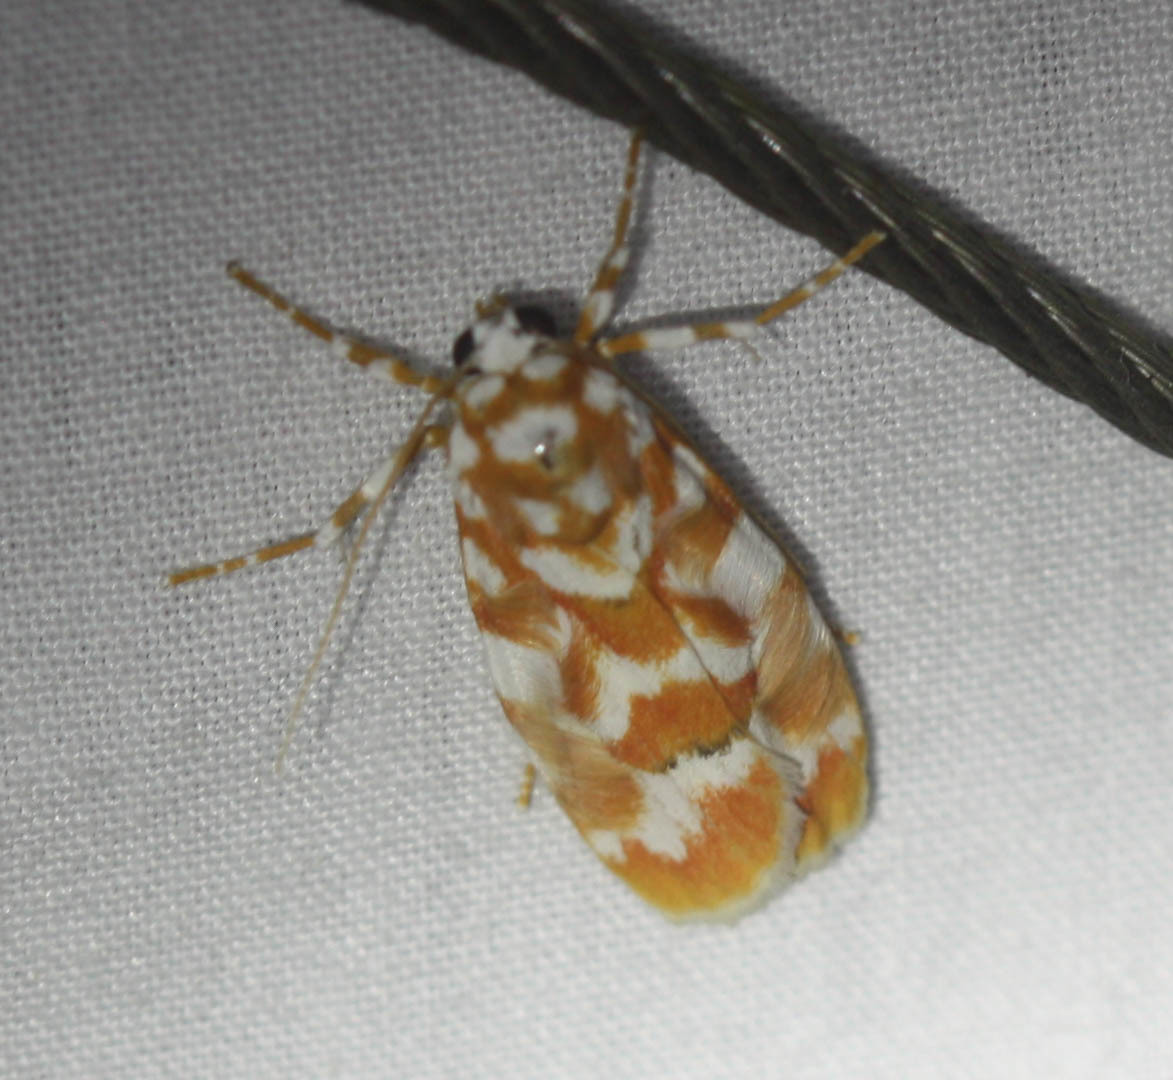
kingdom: Animalia
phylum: Arthropoda
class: Insecta
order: Lepidoptera
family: Erebidae
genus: Cyana
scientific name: Cyana costifimbria
